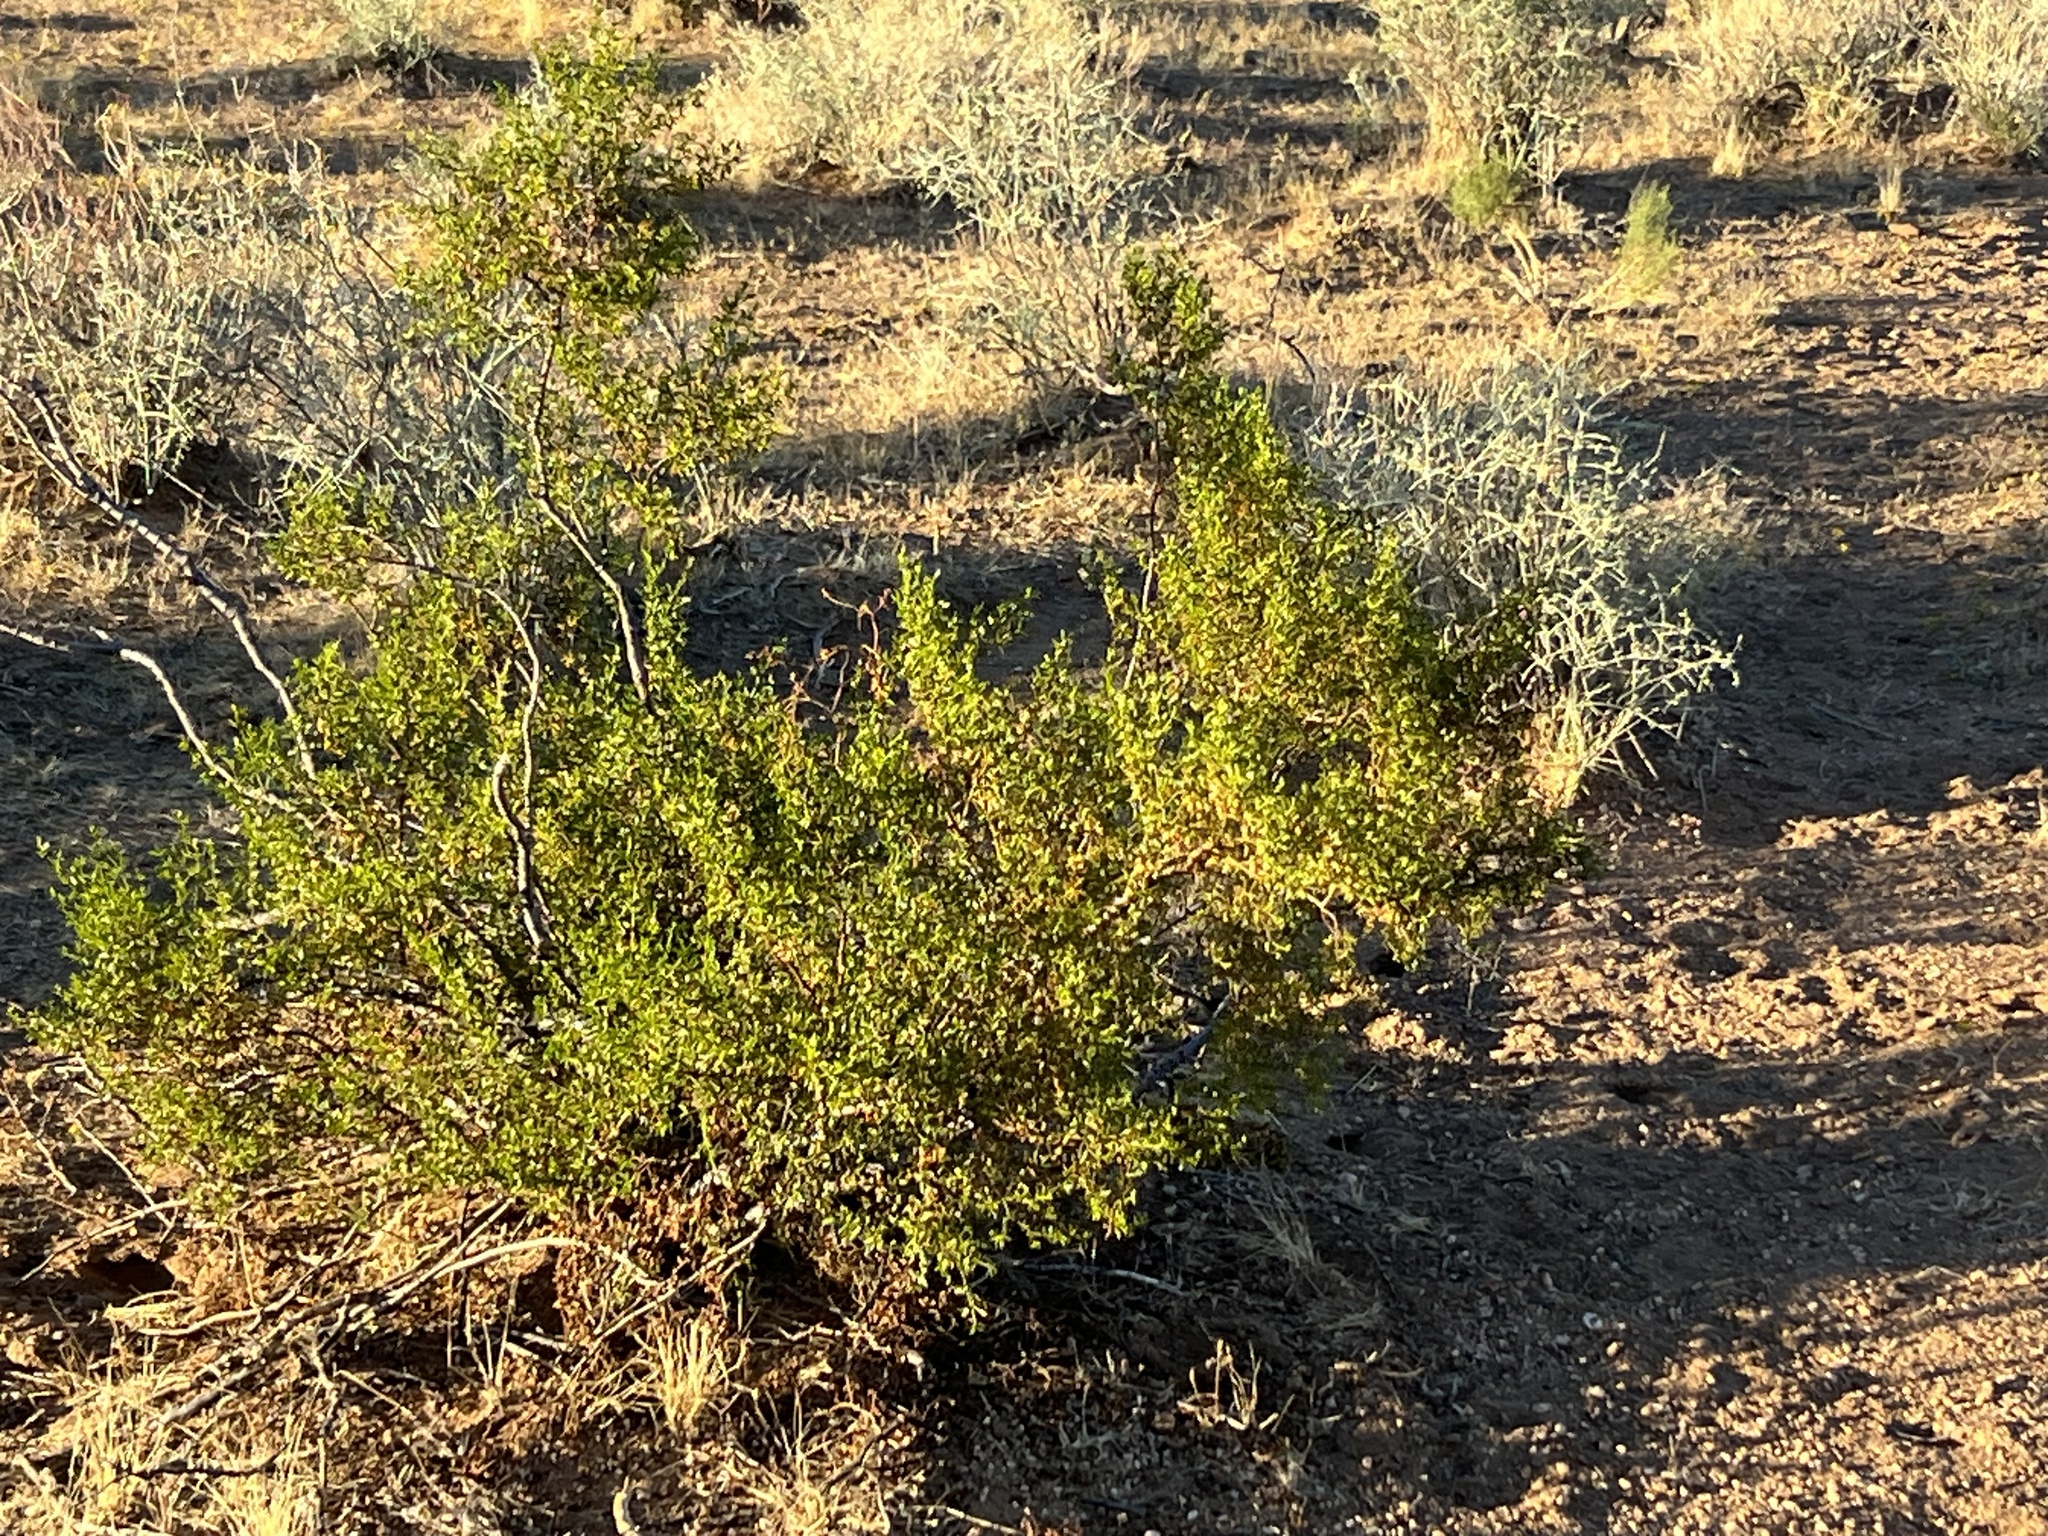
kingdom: Plantae
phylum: Tracheophyta
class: Magnoliopsida
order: Zygophyllales
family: Zygophyllaceae
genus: Larrea
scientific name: Larrea tridentata
